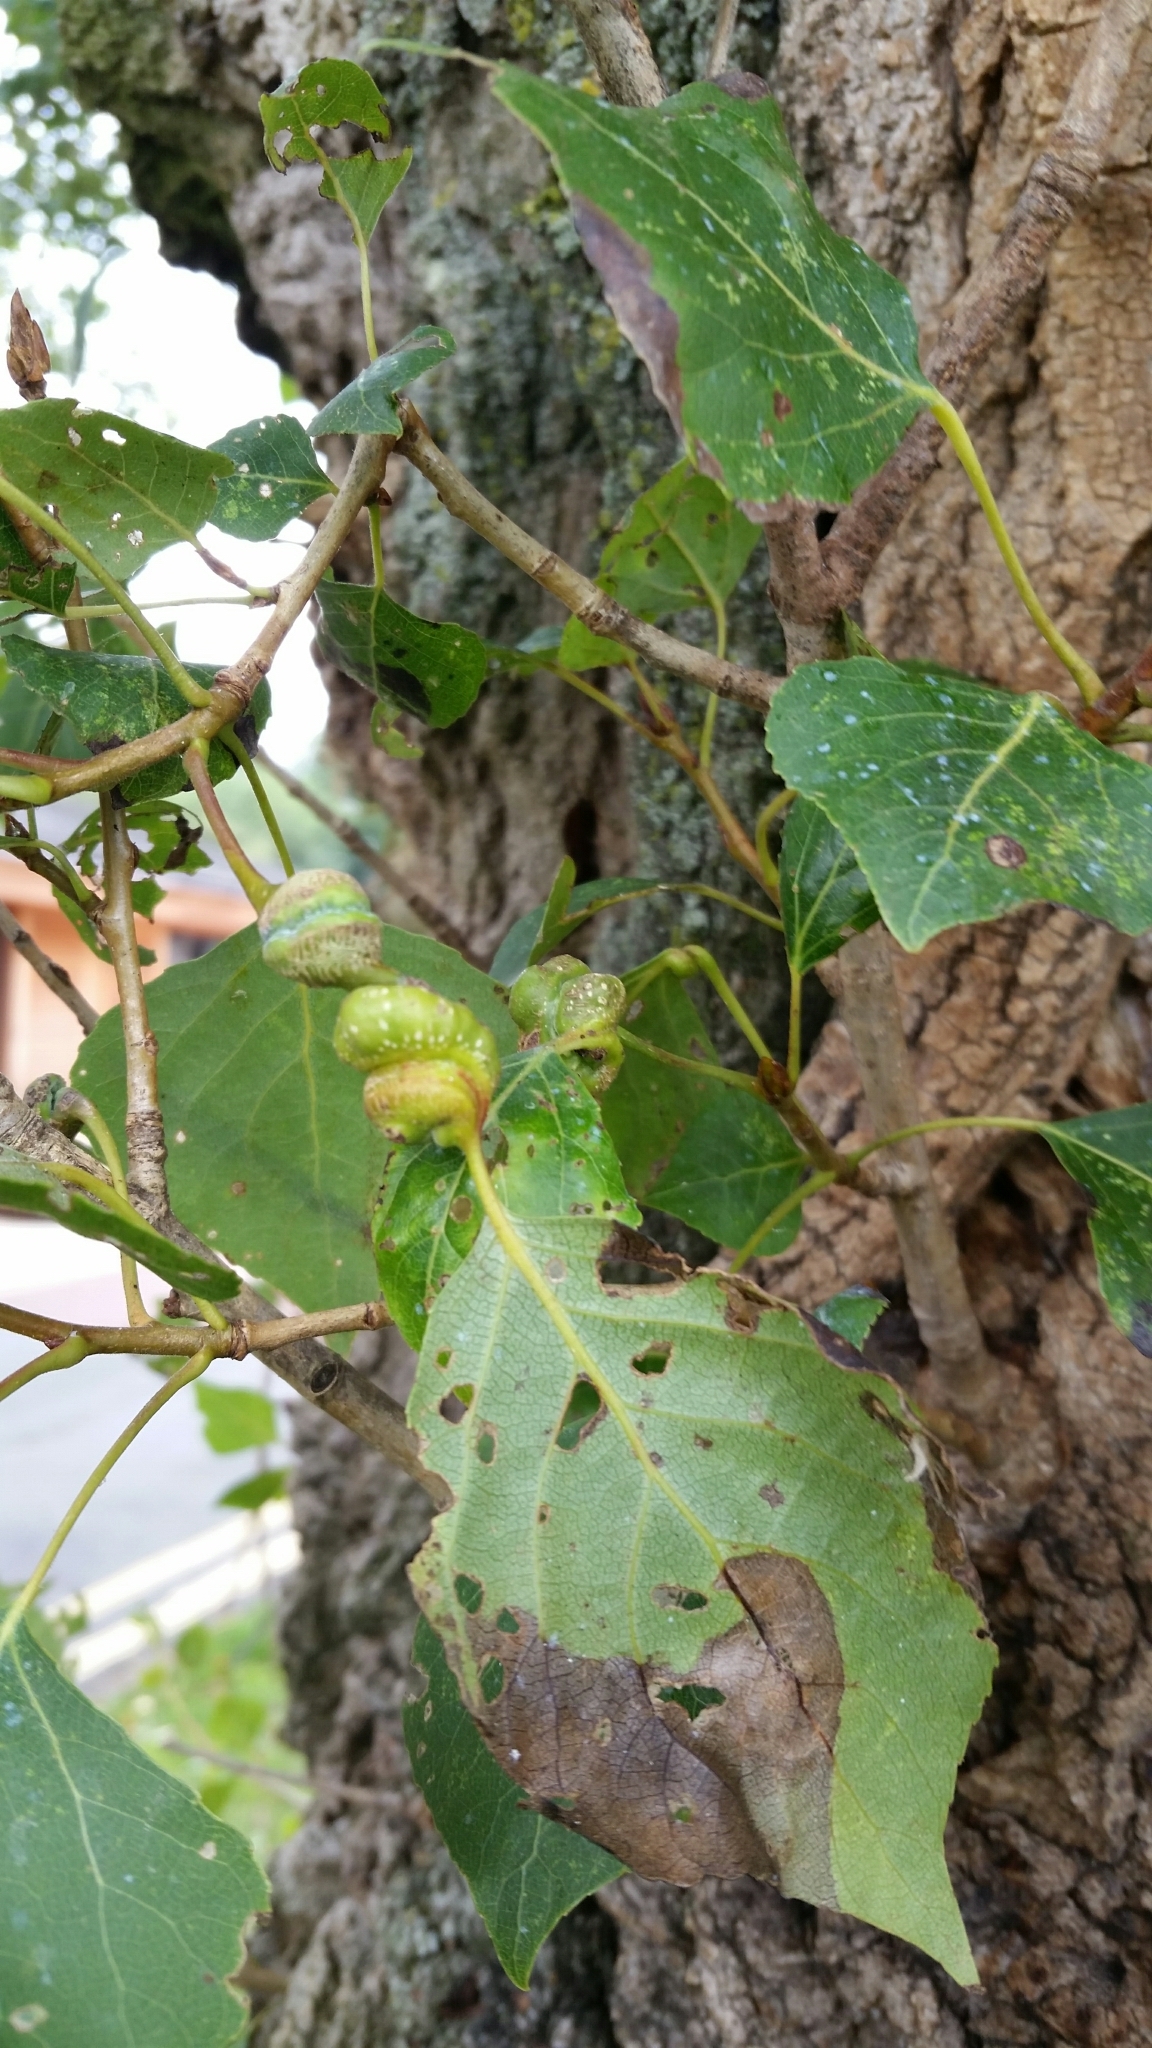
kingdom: Animalia
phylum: Arthropoda
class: Insecta
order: Hemiptera
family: Aphididae
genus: Pemphigus
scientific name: Pemphigus spyrothecae
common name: Aphid
